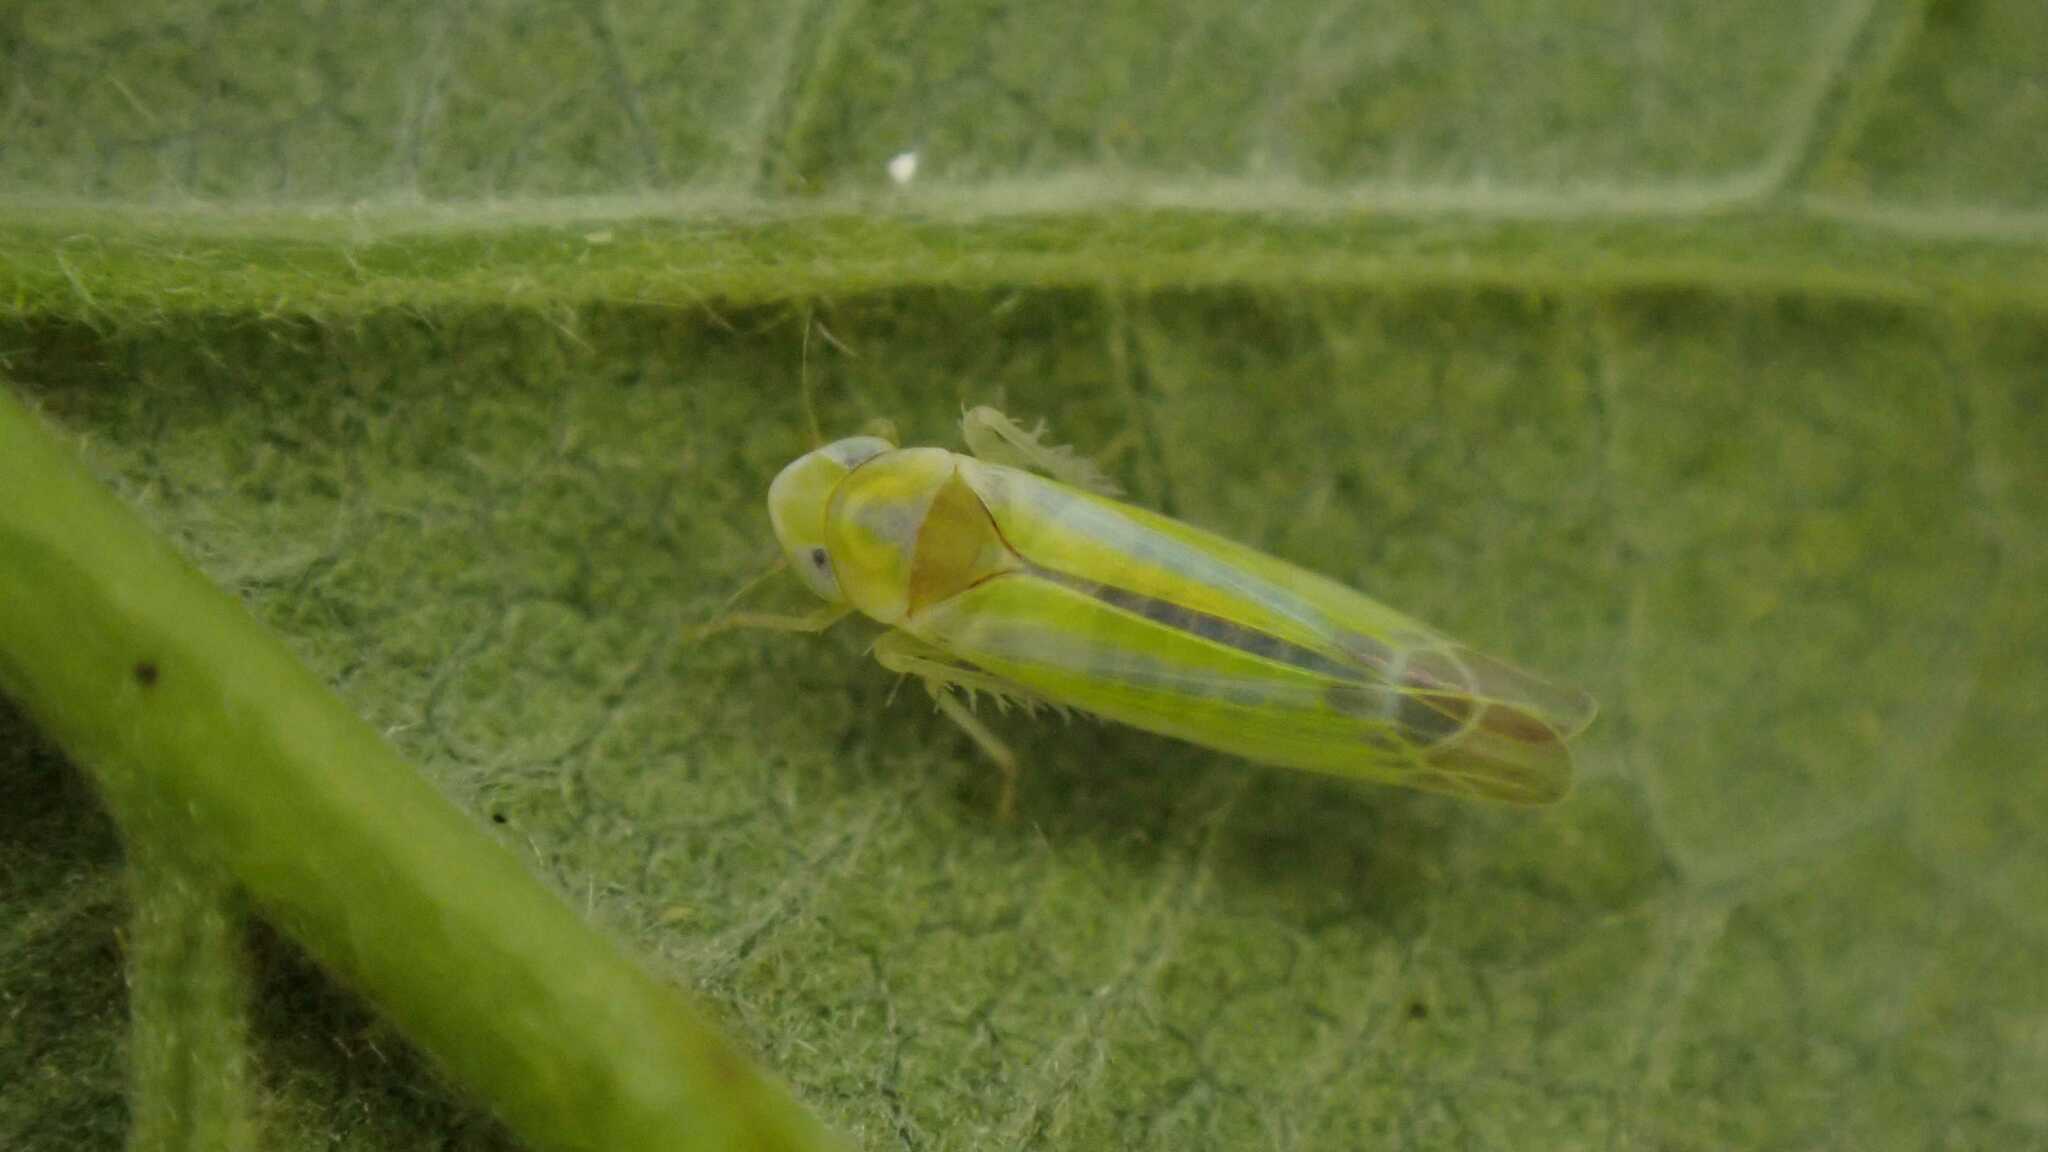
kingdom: Animalia
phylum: Arthropoda
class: Insecta
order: Hemiptera
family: Cicadellidae
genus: Lindbergina
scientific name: Lindbergina aurovittata
